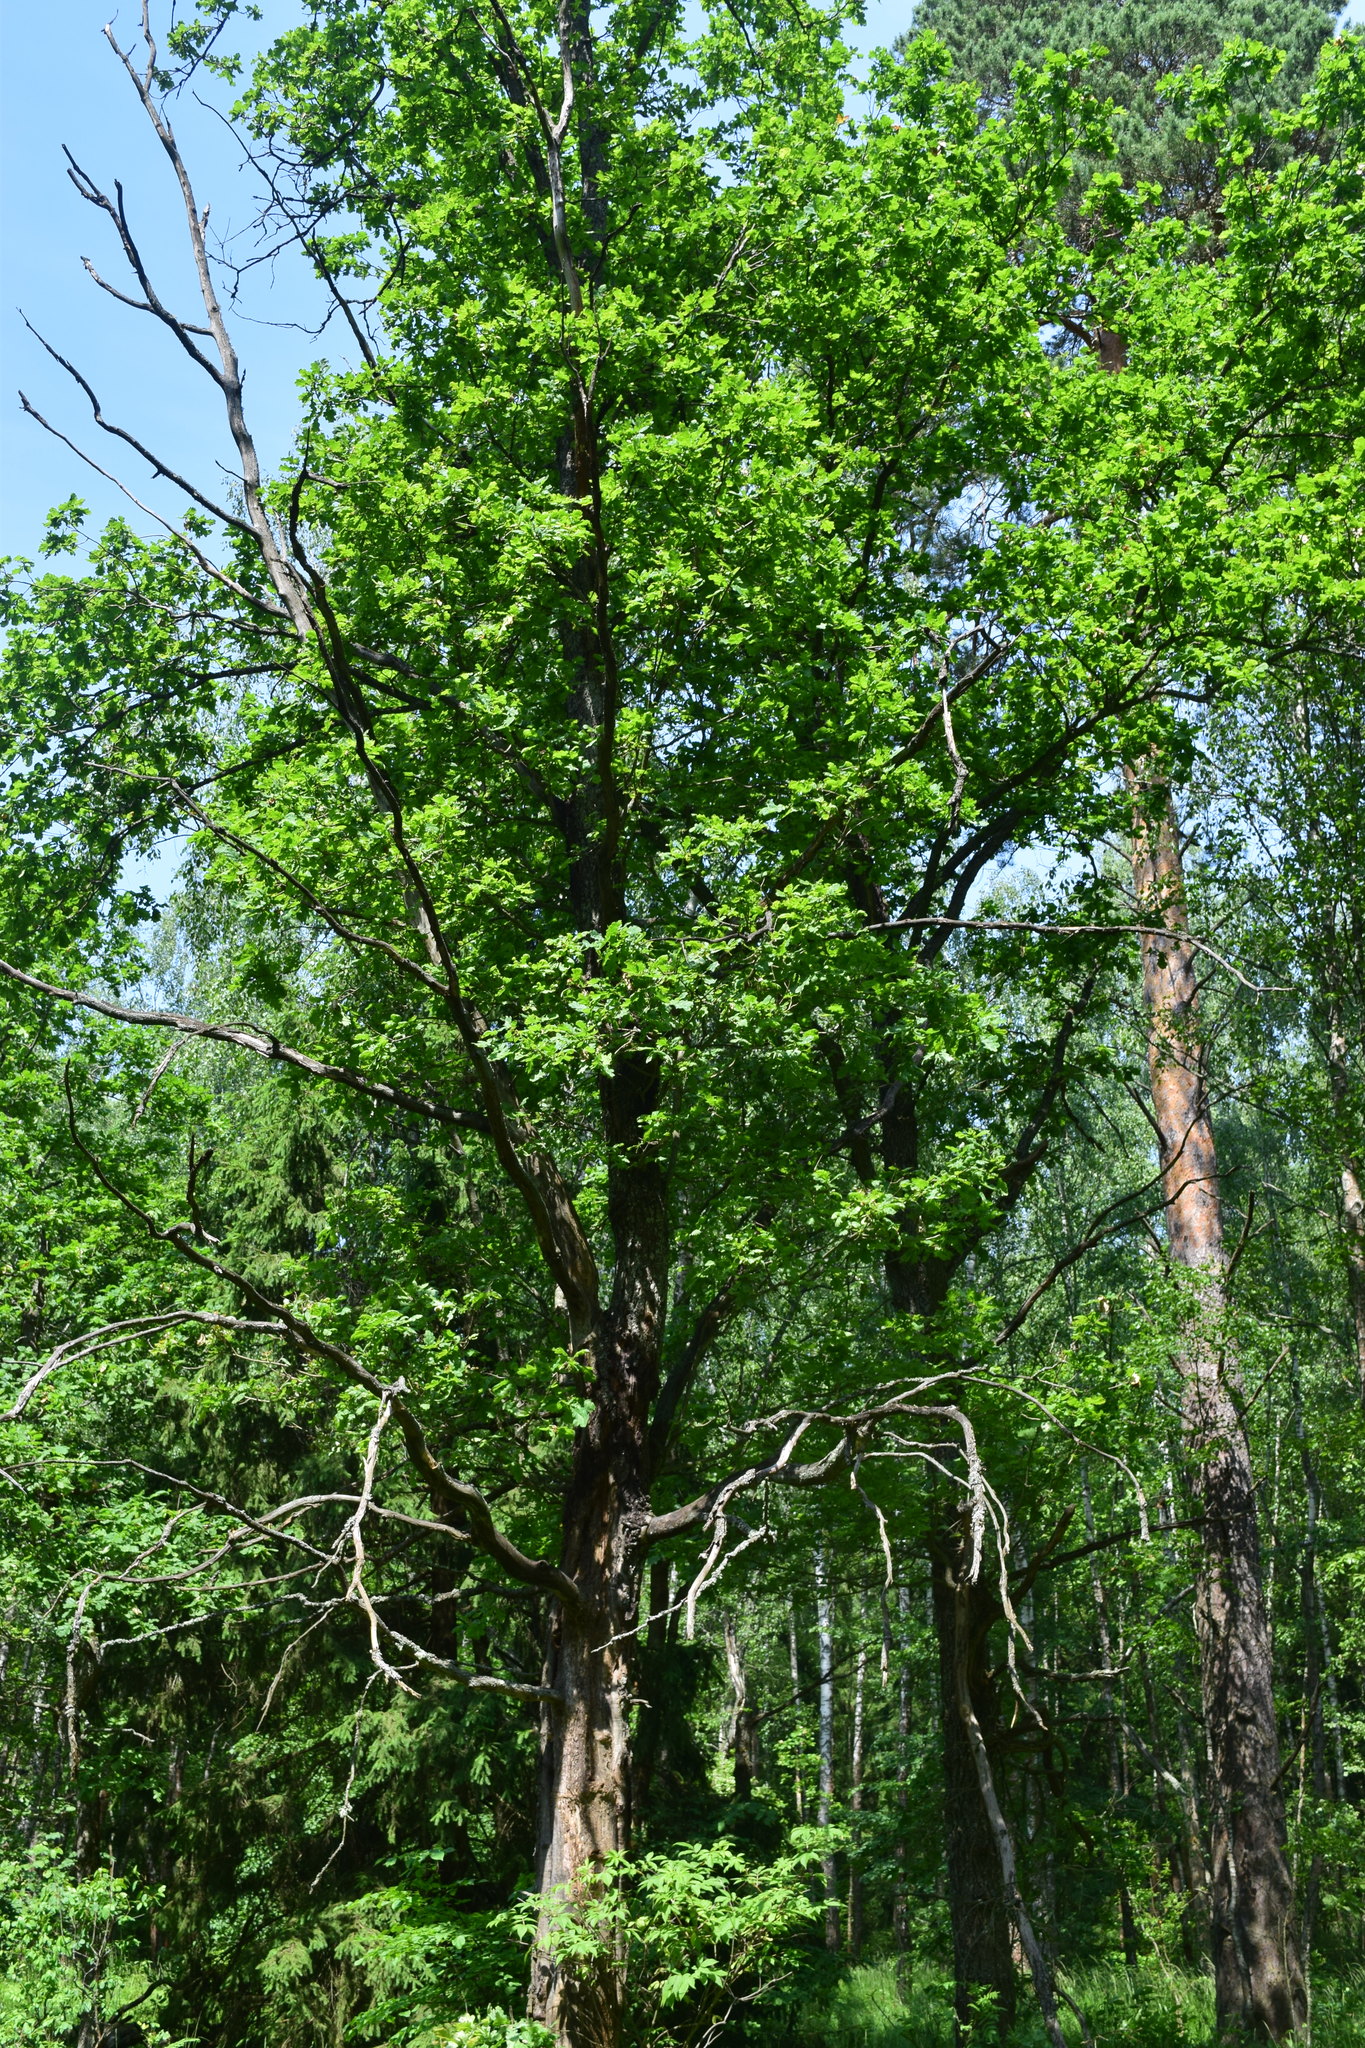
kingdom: Plantae
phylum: Tracheophyta
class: Magnoliopsida
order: Fagales
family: Fagaceae
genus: Quercus
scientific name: Quercus robur
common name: Pedunculate oak
